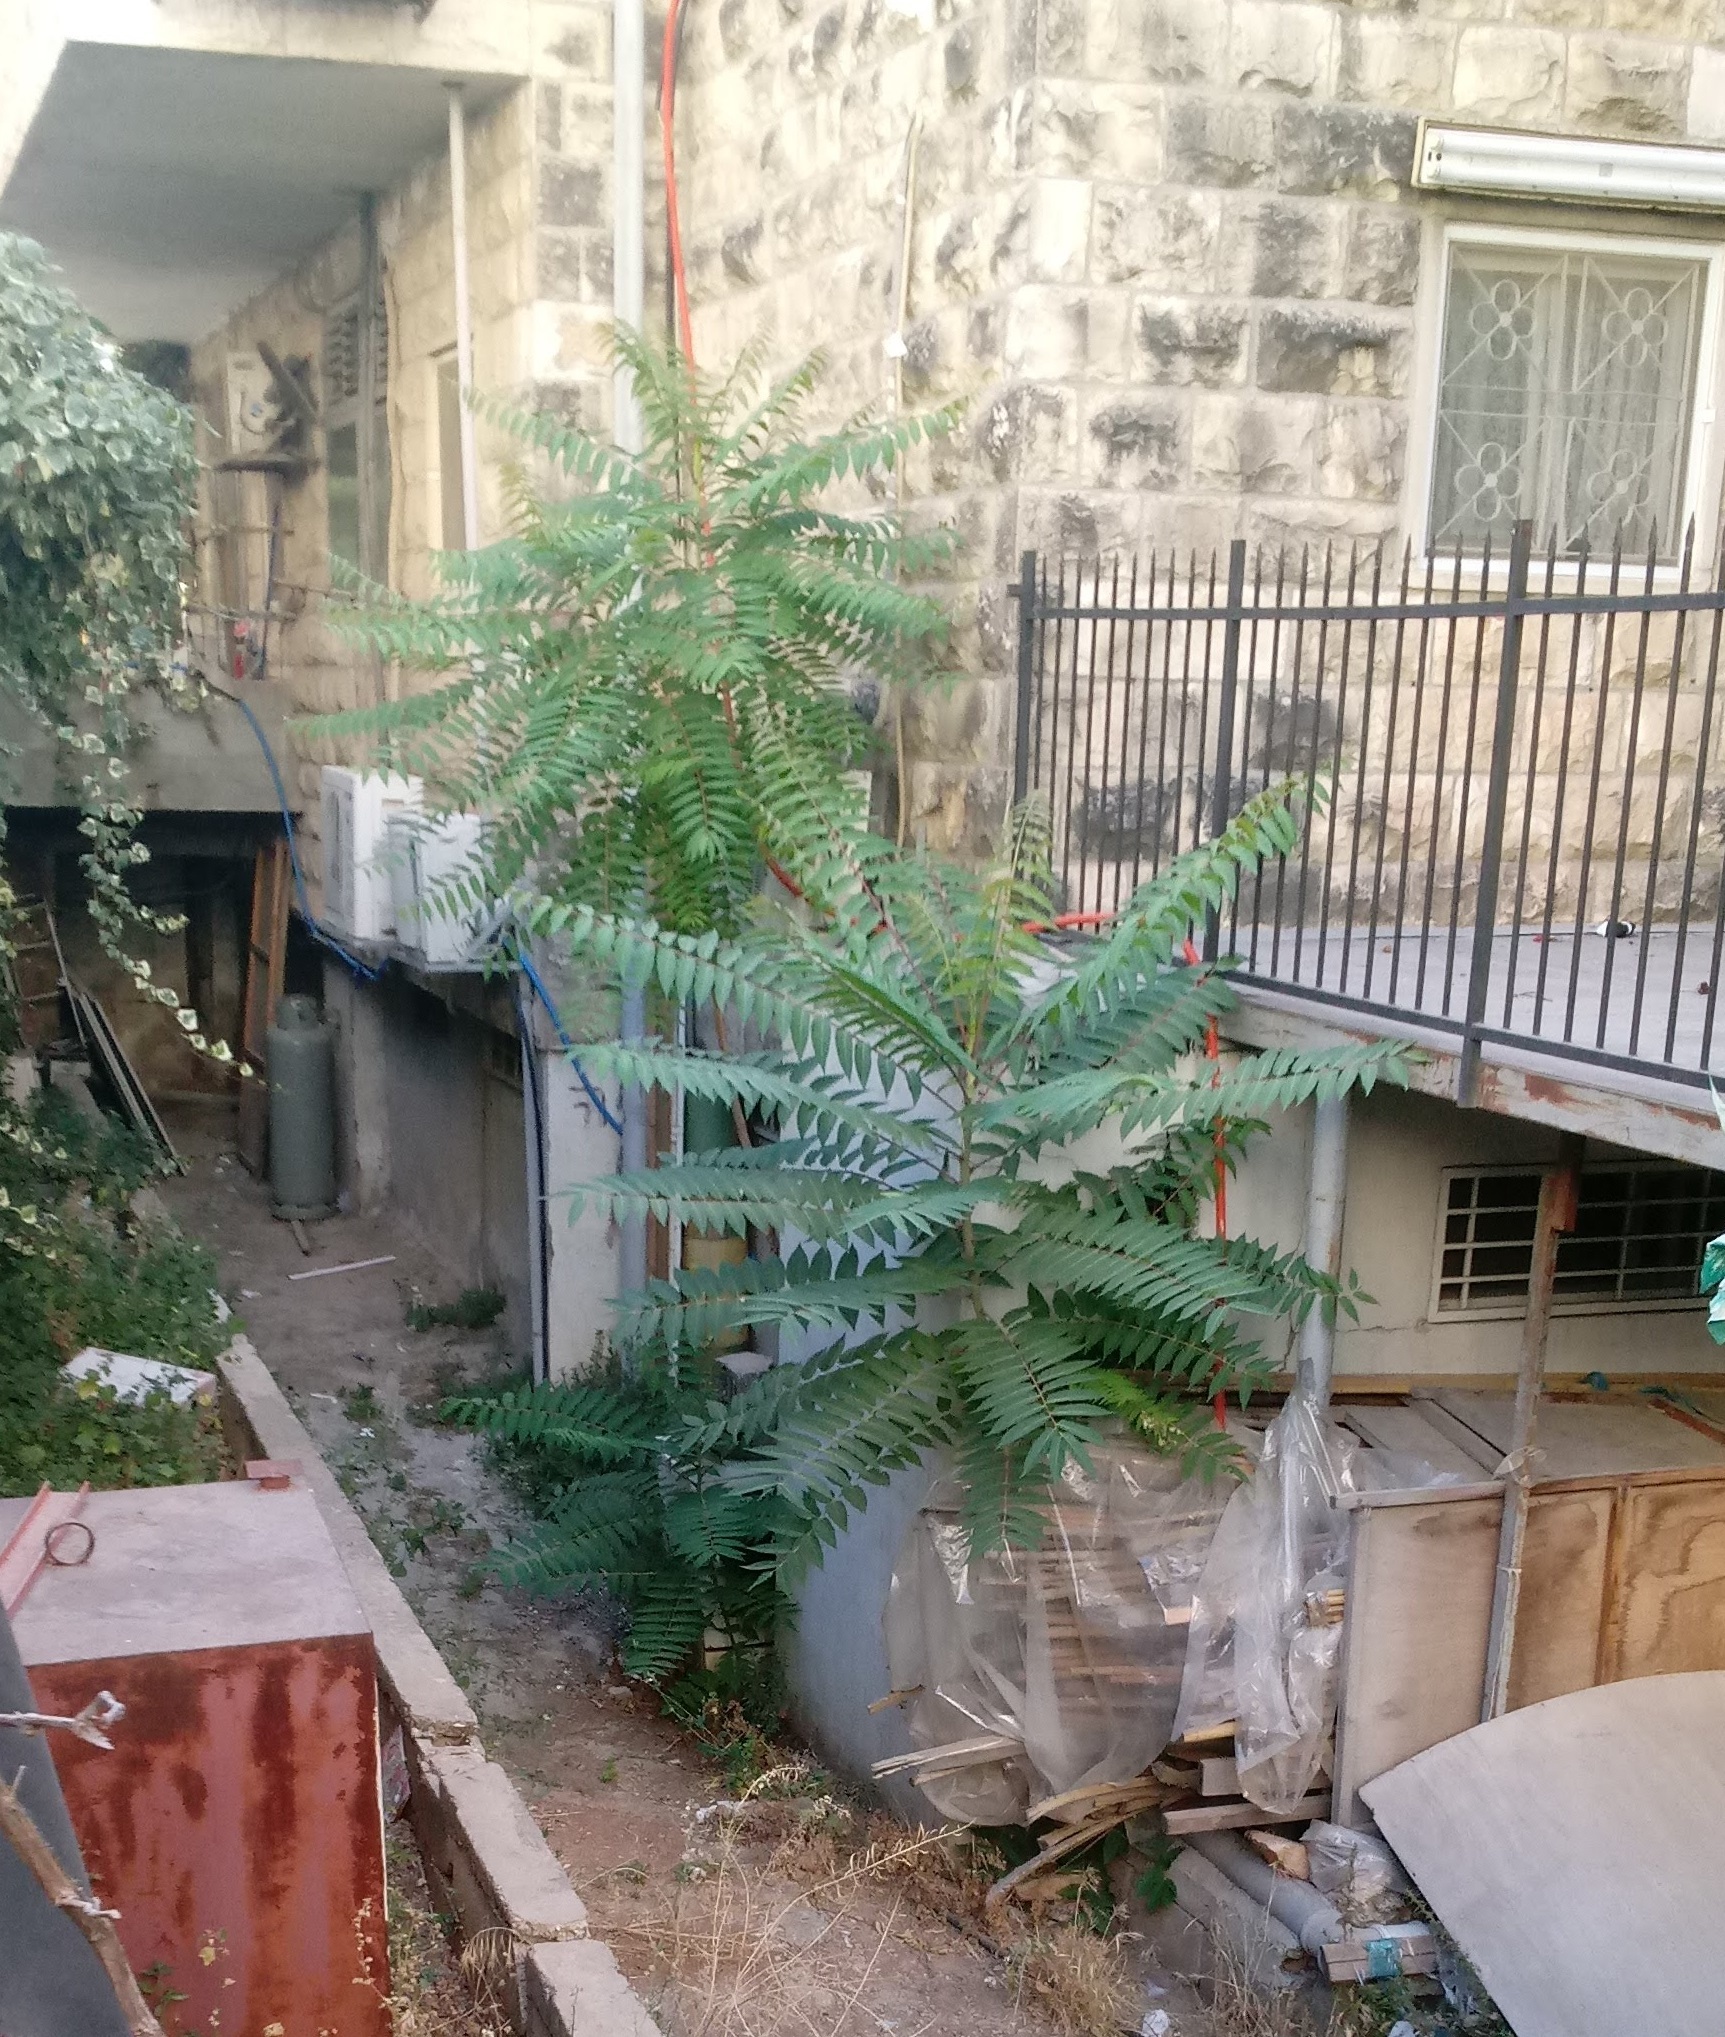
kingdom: Plantae
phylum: Tracheophyta
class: Magnoliopsida
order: Sapindales
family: Simaroubaceae
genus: Ailanthus
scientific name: Ailanthus altissima
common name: Tree-of-heaven
